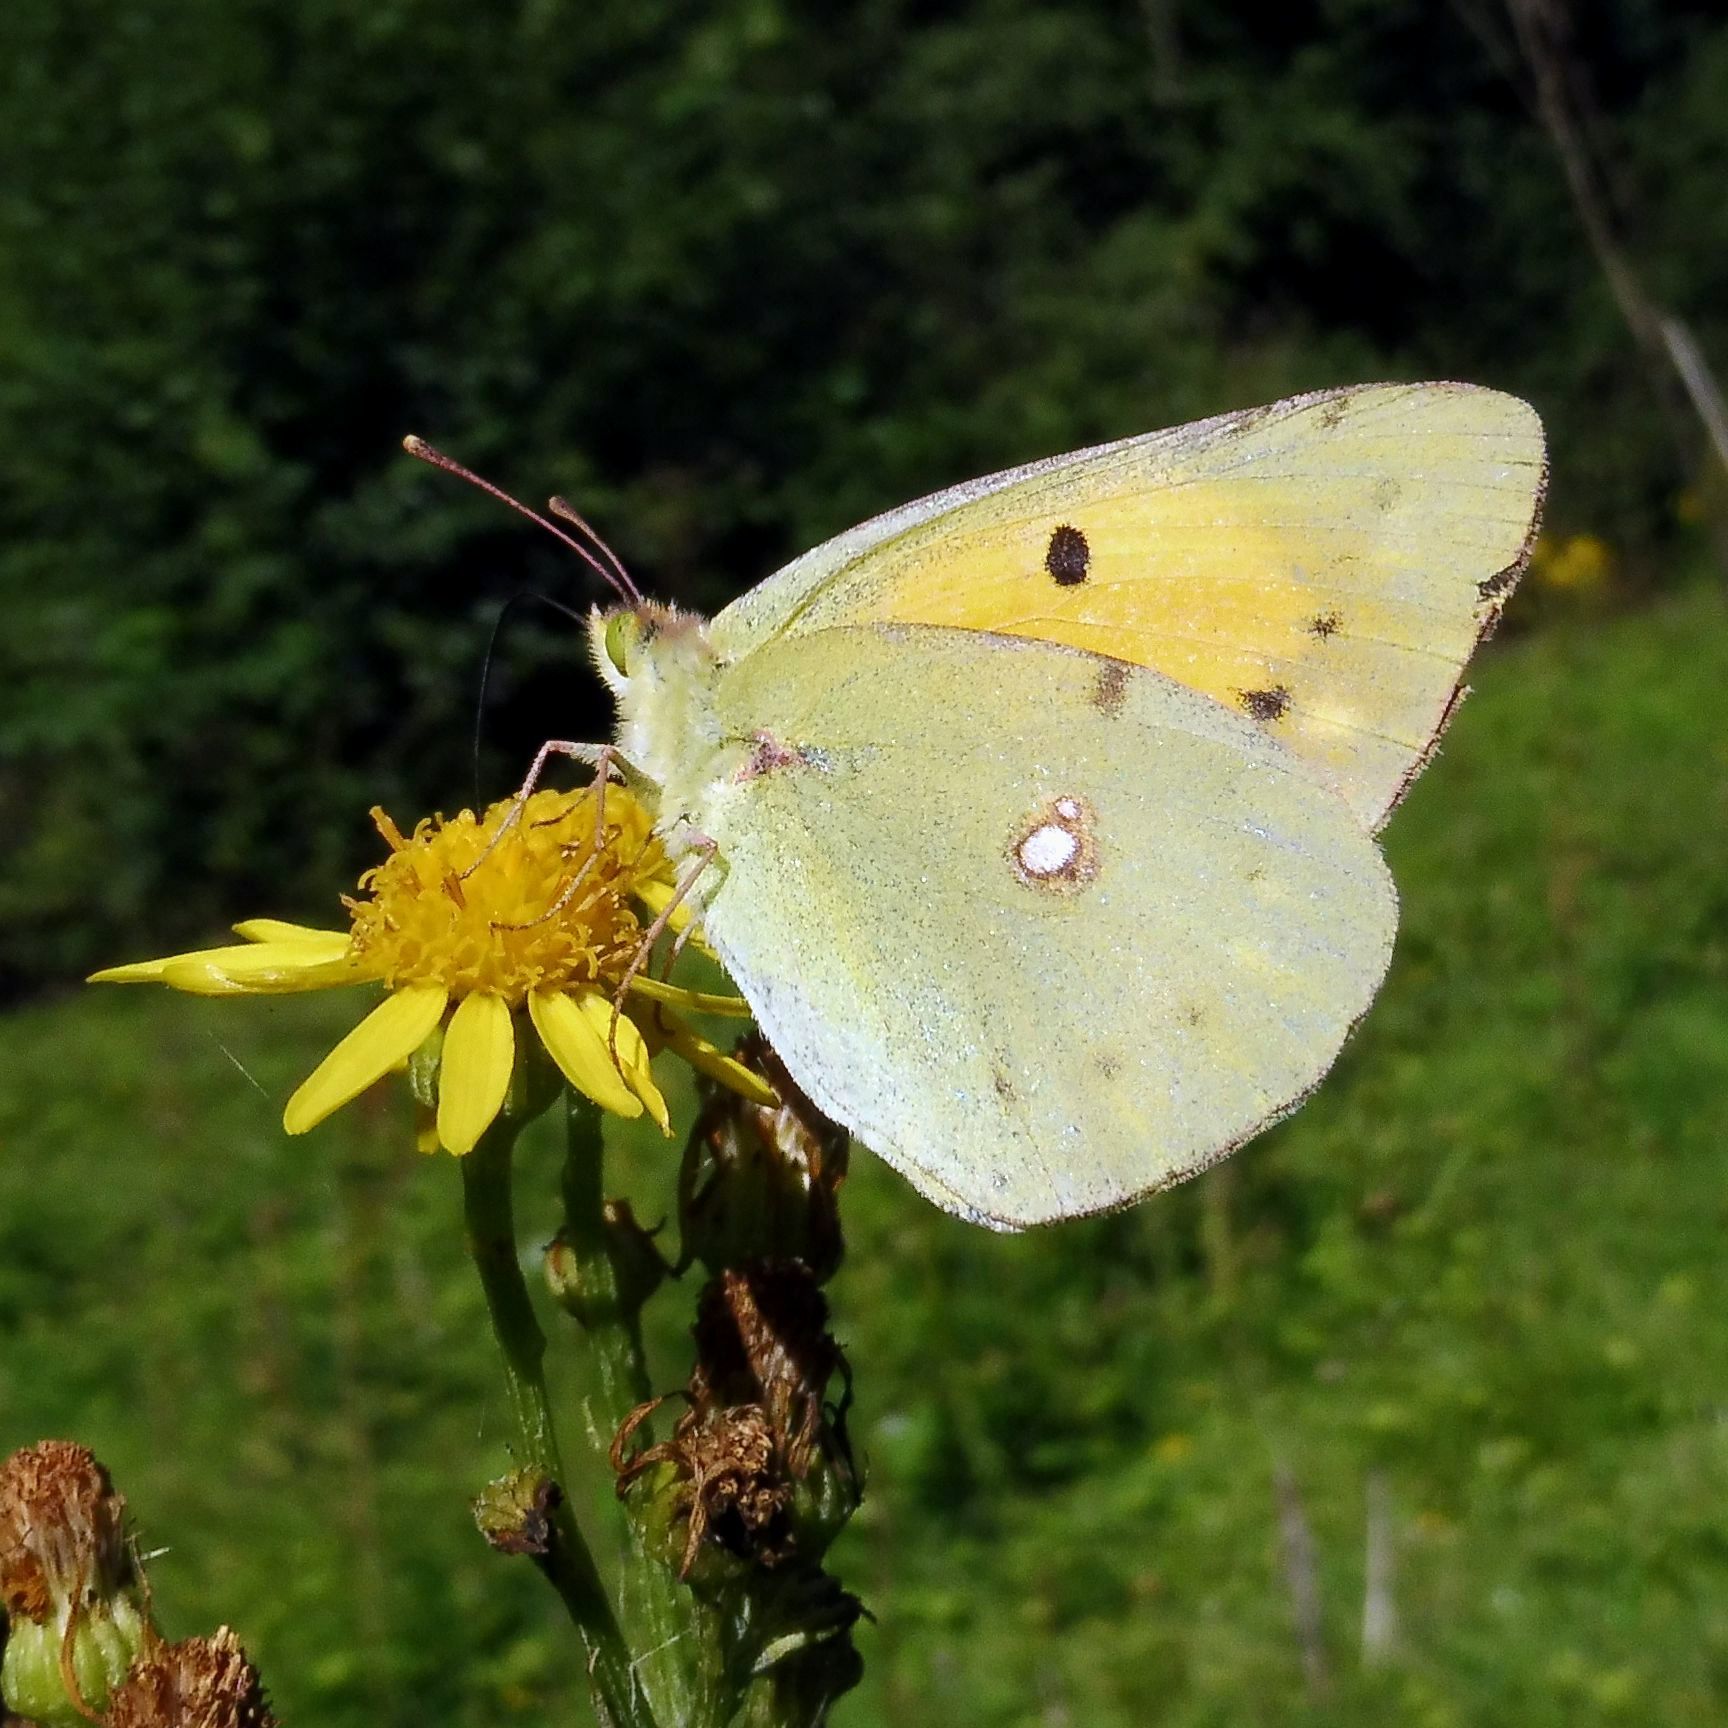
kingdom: Animalia
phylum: Arthropoda
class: Insecta
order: Lepidoptera
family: Pieridae
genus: Colias
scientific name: Colias croceus
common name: Clouded yellow
